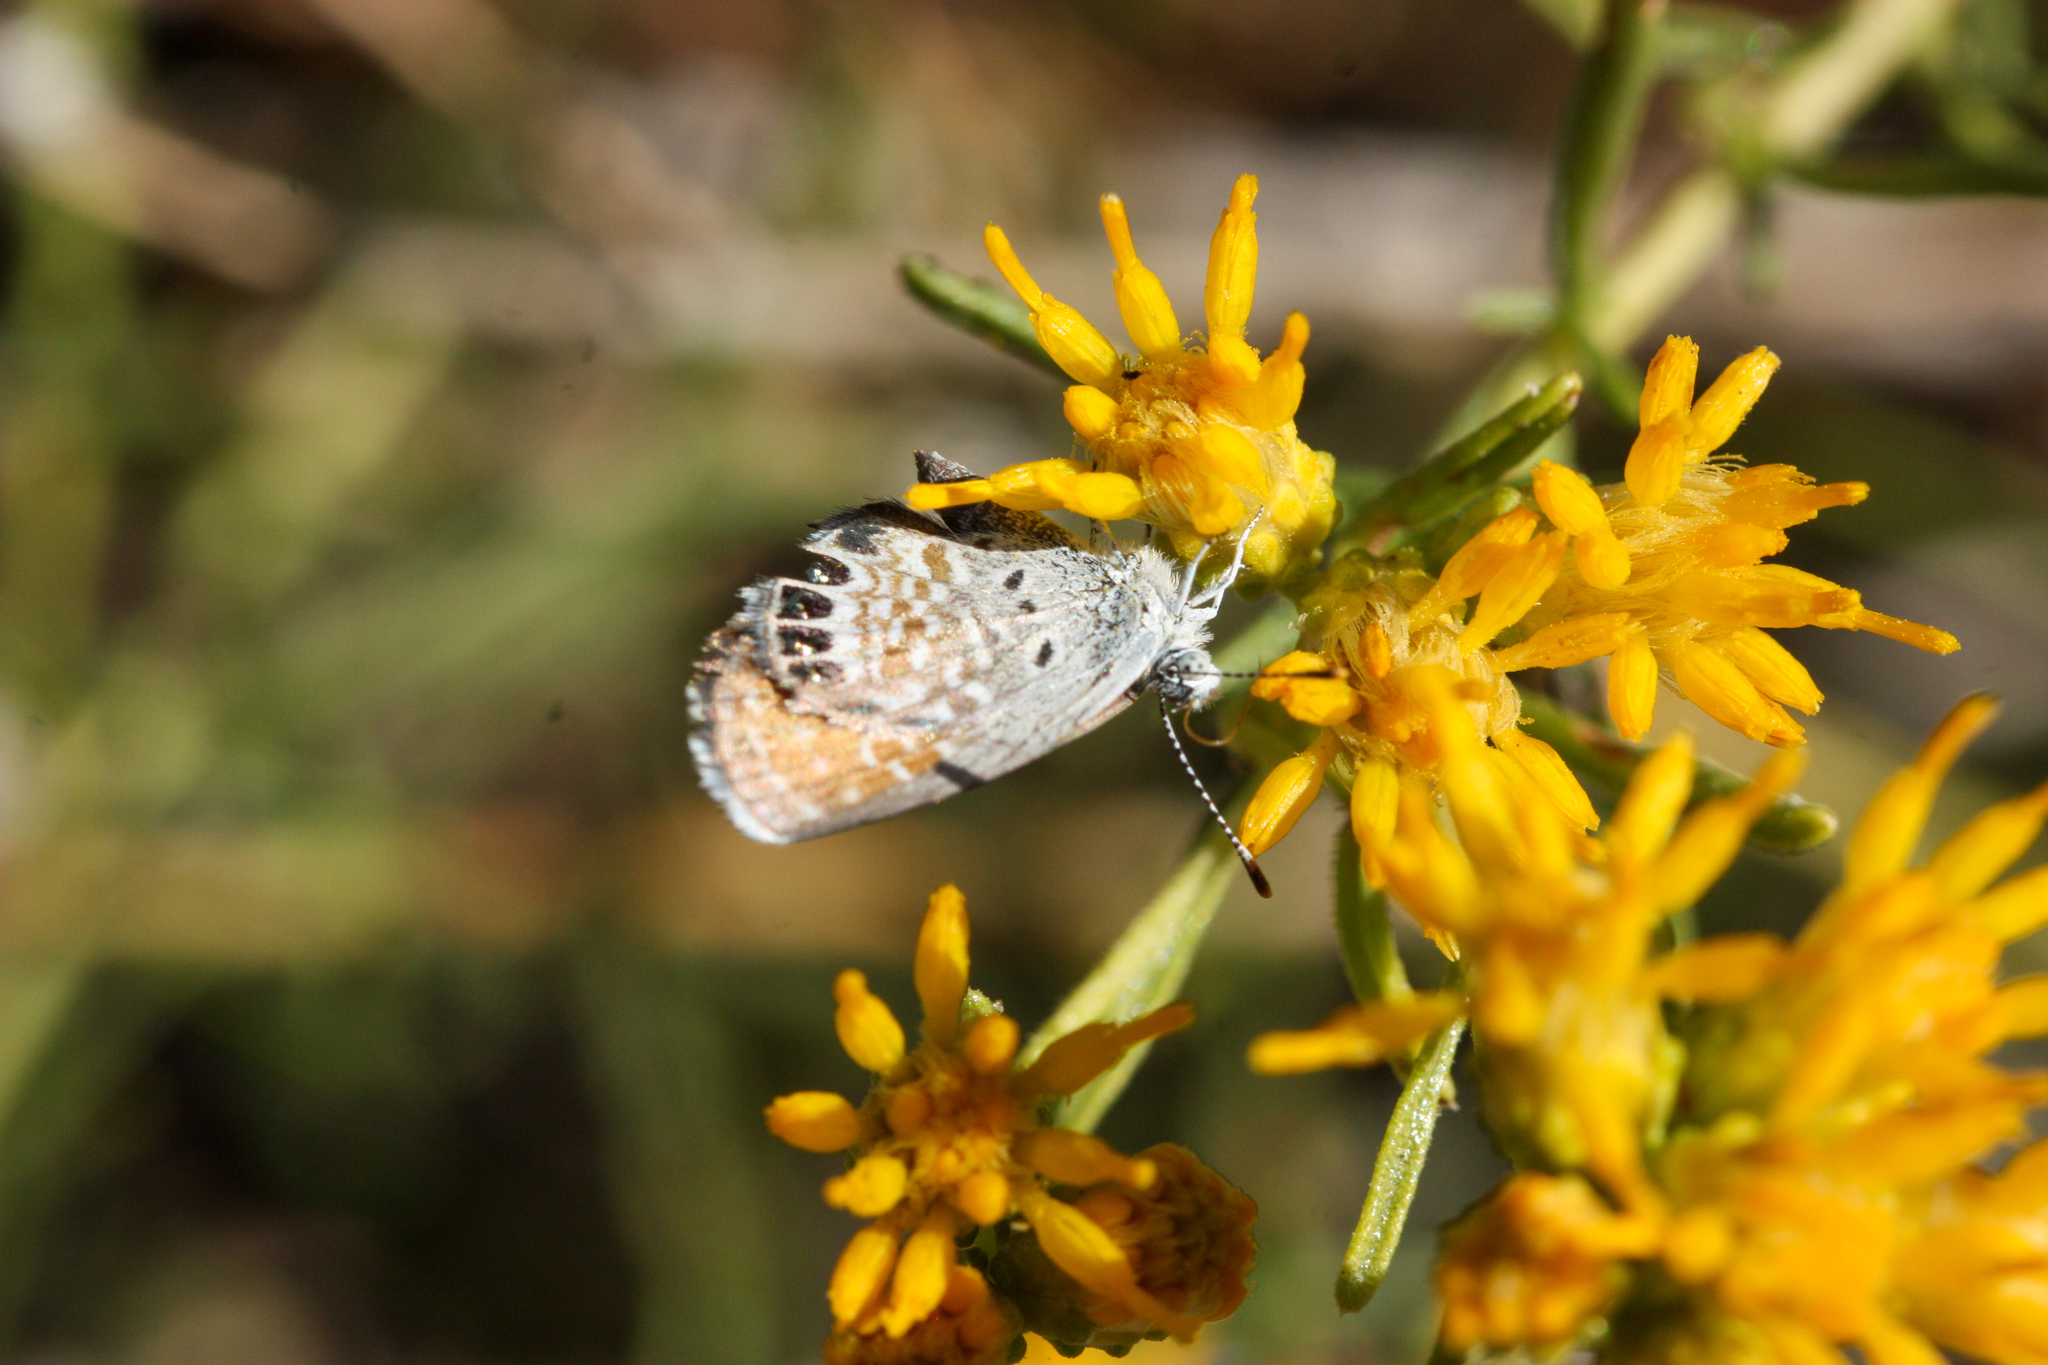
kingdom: Animalia
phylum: Arthropoda
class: Insecta
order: Lepidoptera
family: Lycaenidae
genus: Brephidium
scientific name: Brephidium exilis
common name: Pygmy blue
